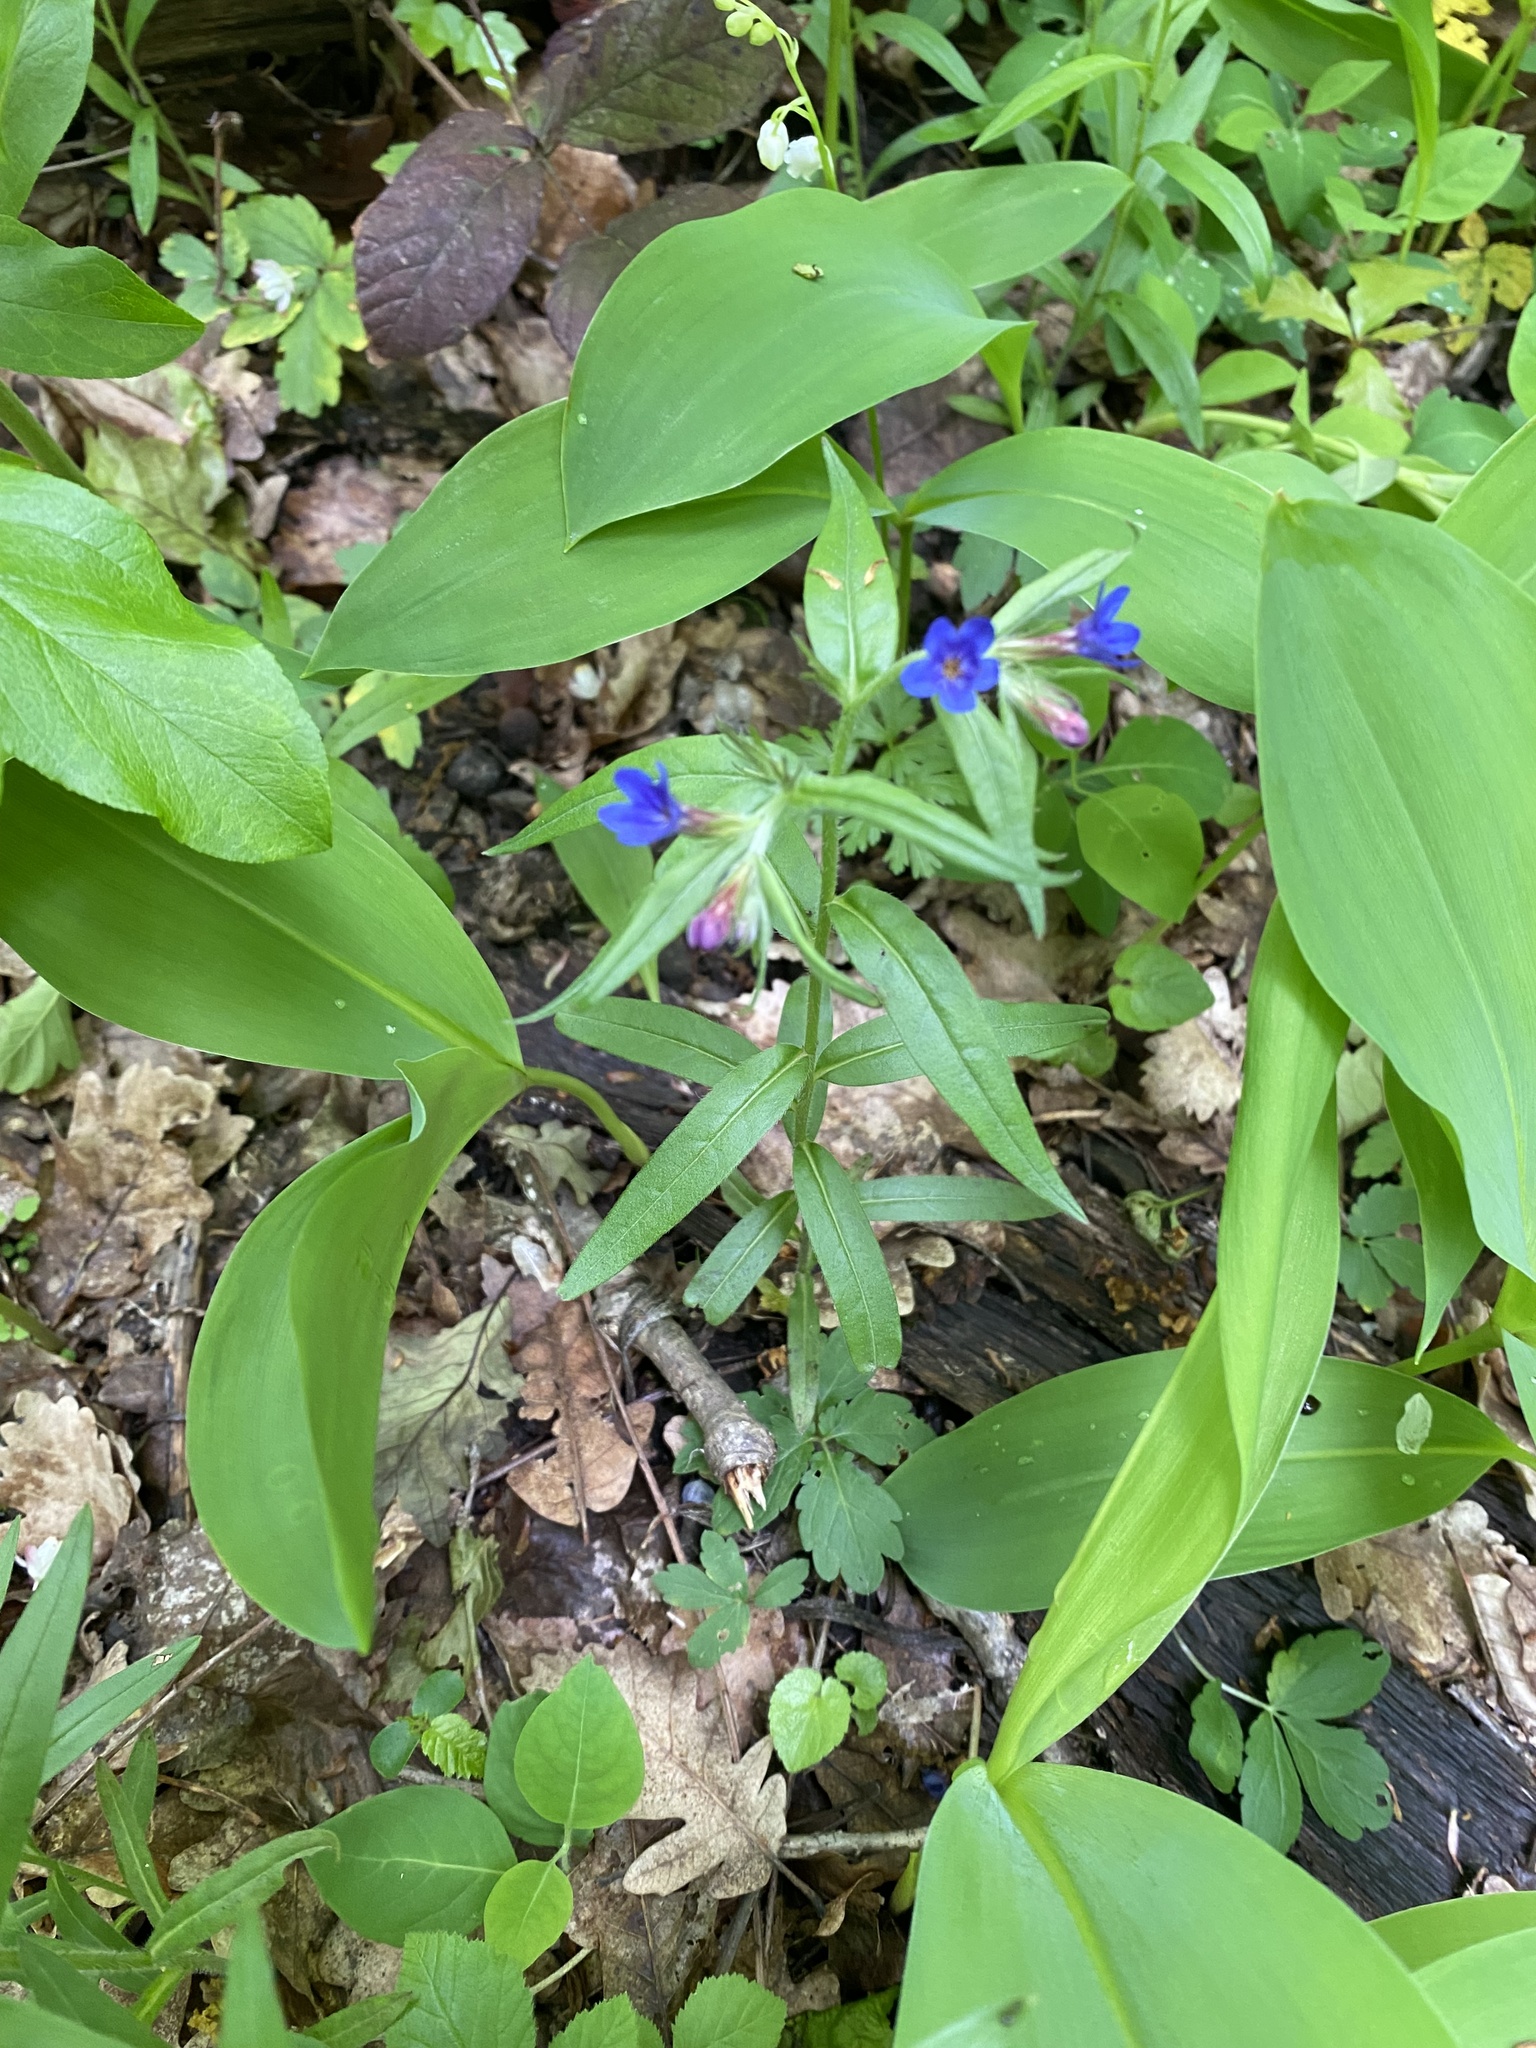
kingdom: Plantae
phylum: Tracheophyta
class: Magnoliopsida
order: Boraginales
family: Boraginaceae
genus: Aegonychon
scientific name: Aegonychon purpurocaeruleum
